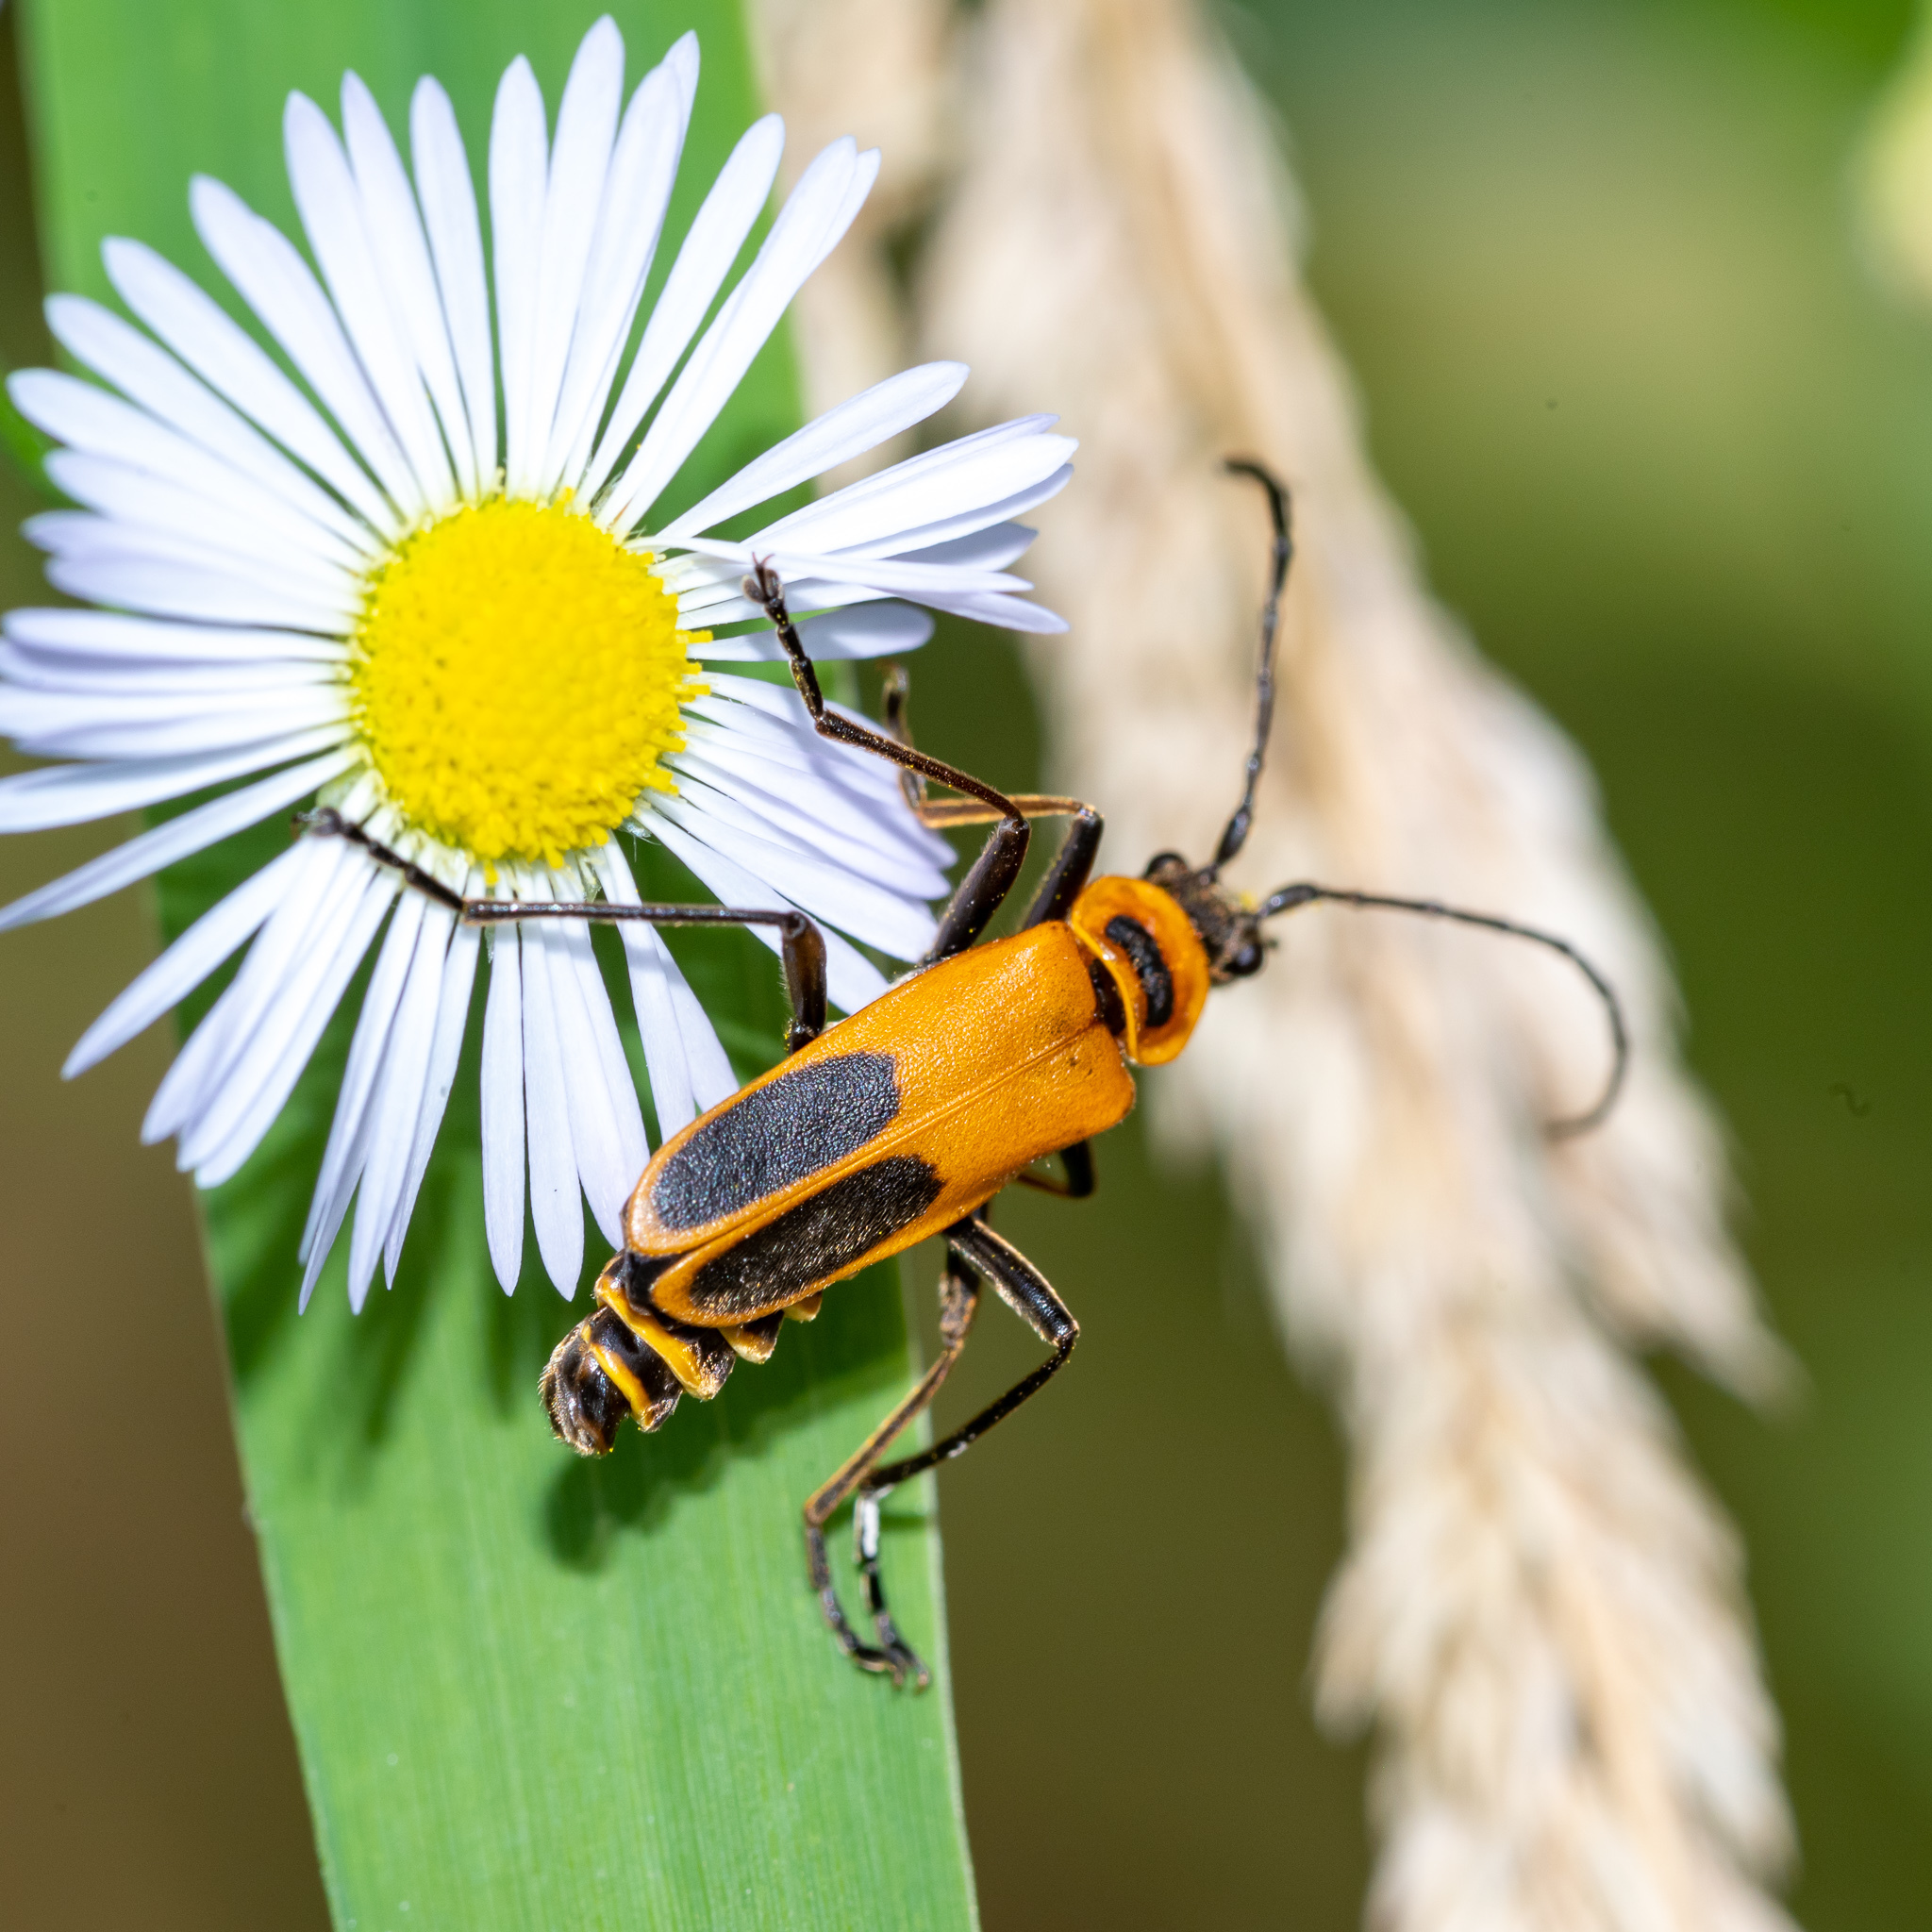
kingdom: Animalia
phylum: Arthropoda
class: Insecta
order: Coleoptera
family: Cantharidae
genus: Chauliognathus
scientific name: Chauliognathus pensylvanicus
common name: Goldenrod soldier beetle
